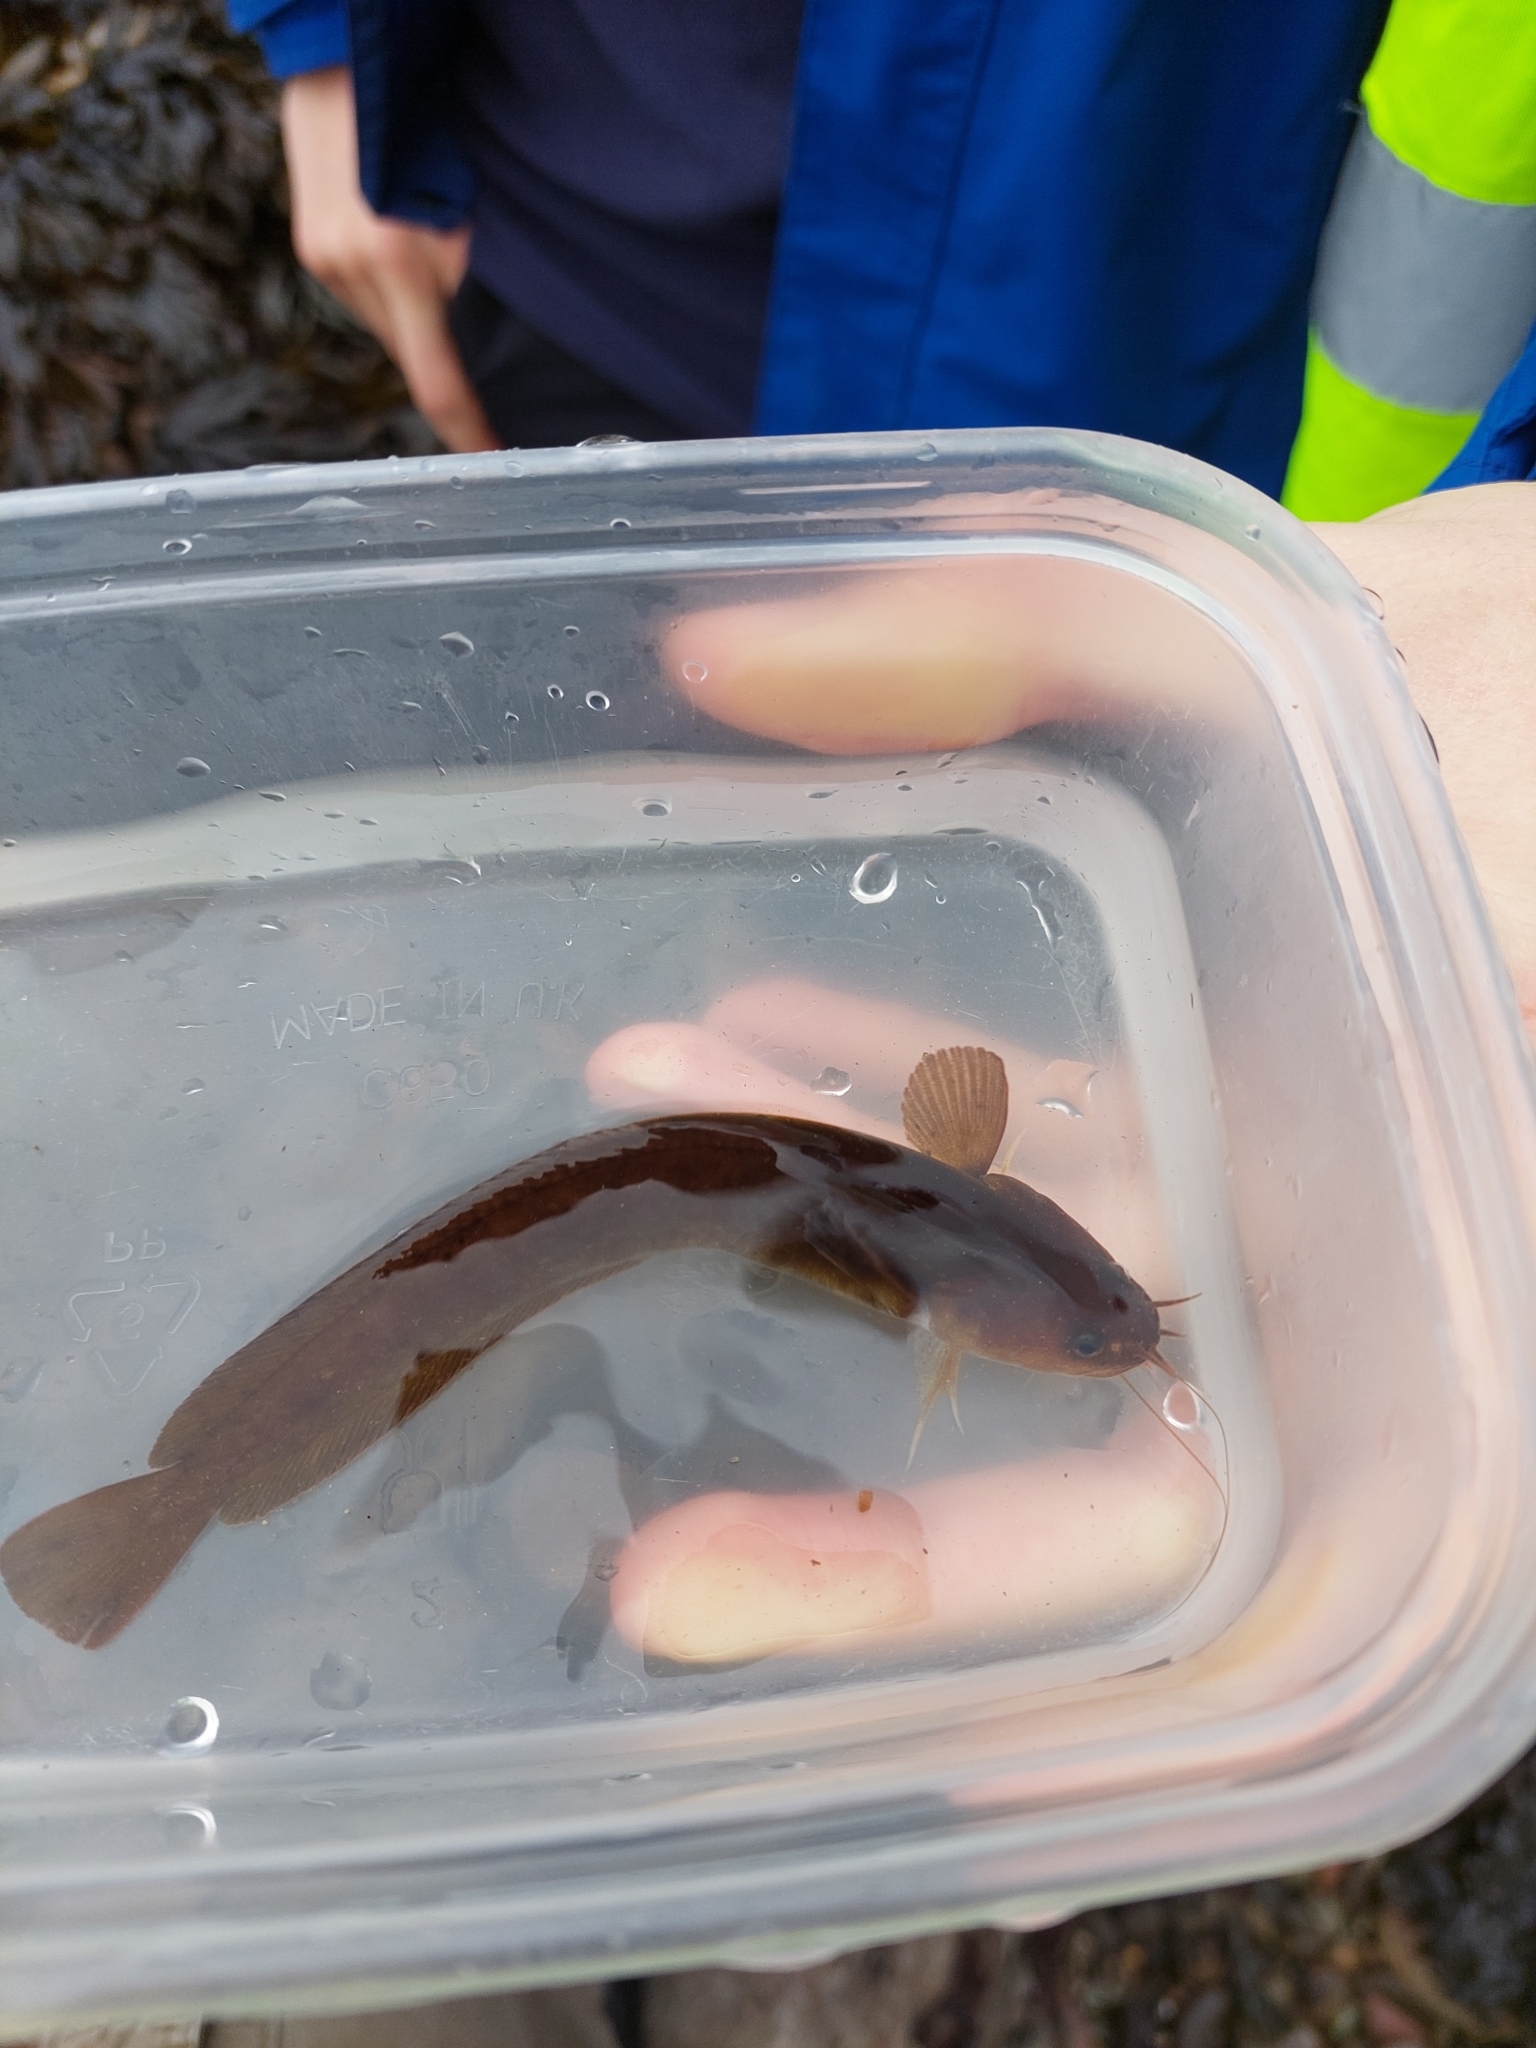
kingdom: Animalia
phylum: Chordata
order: Gadiformes
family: Lotidae
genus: Ciliata
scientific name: Ciliata mustela
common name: Five-bearded rockling
